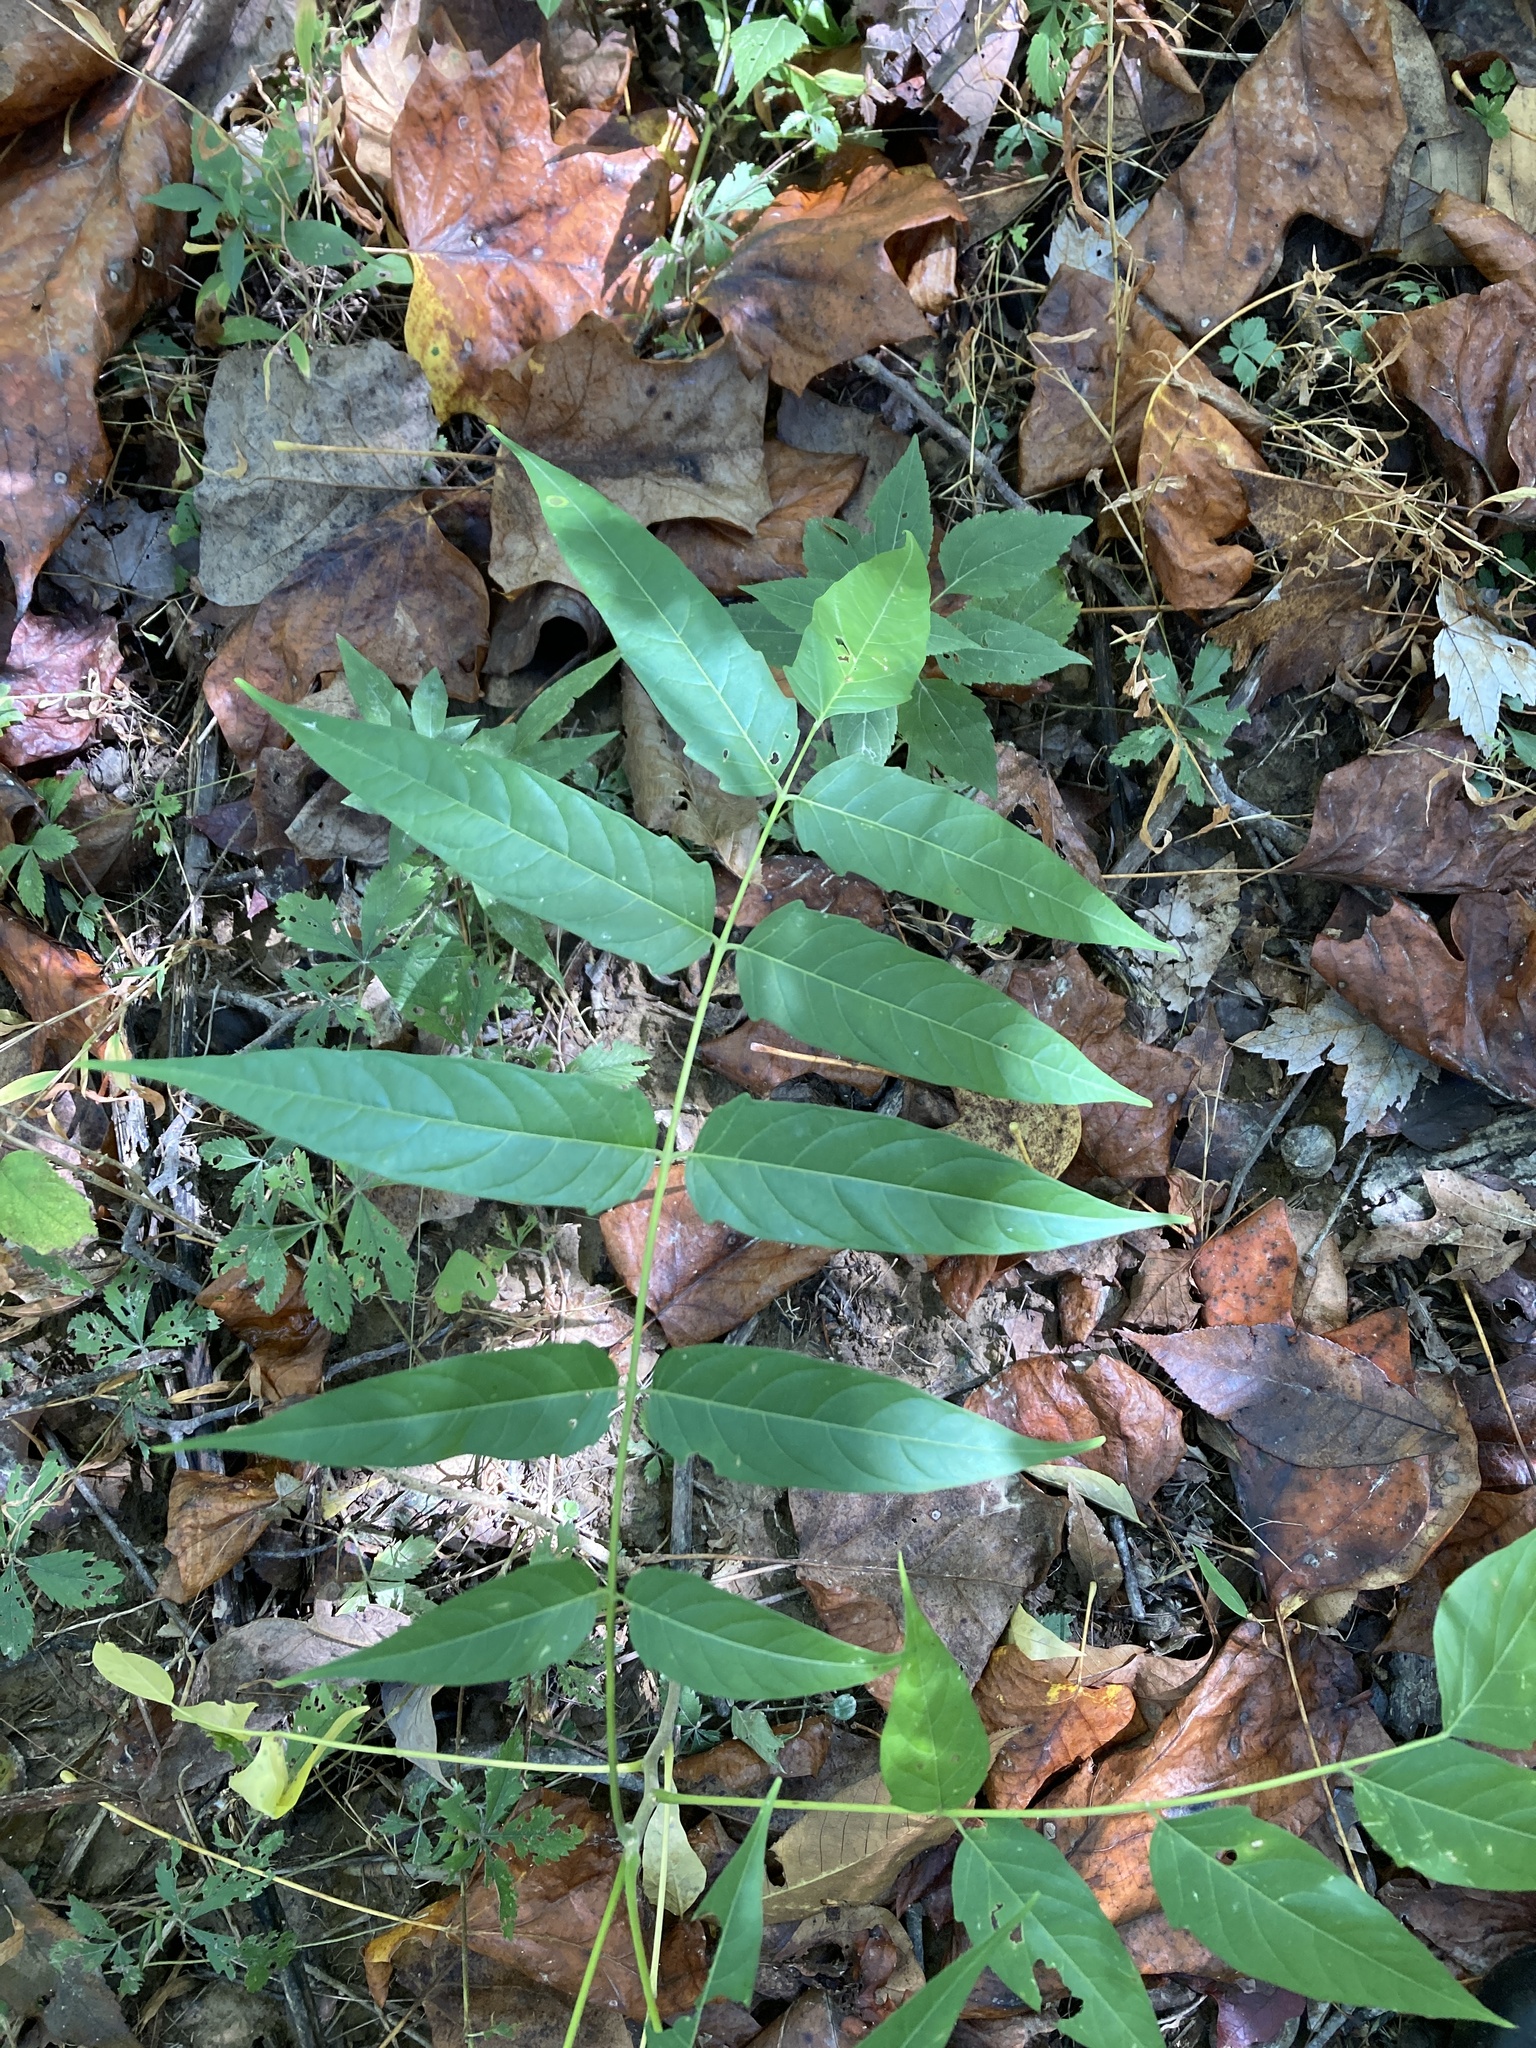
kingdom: Plantae
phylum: Tracheophyta
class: Magnoliopsida
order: Sapindales
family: Simaroubaceae
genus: Ailanthus
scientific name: Ailanthus altissima
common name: Tree-of-heaven
